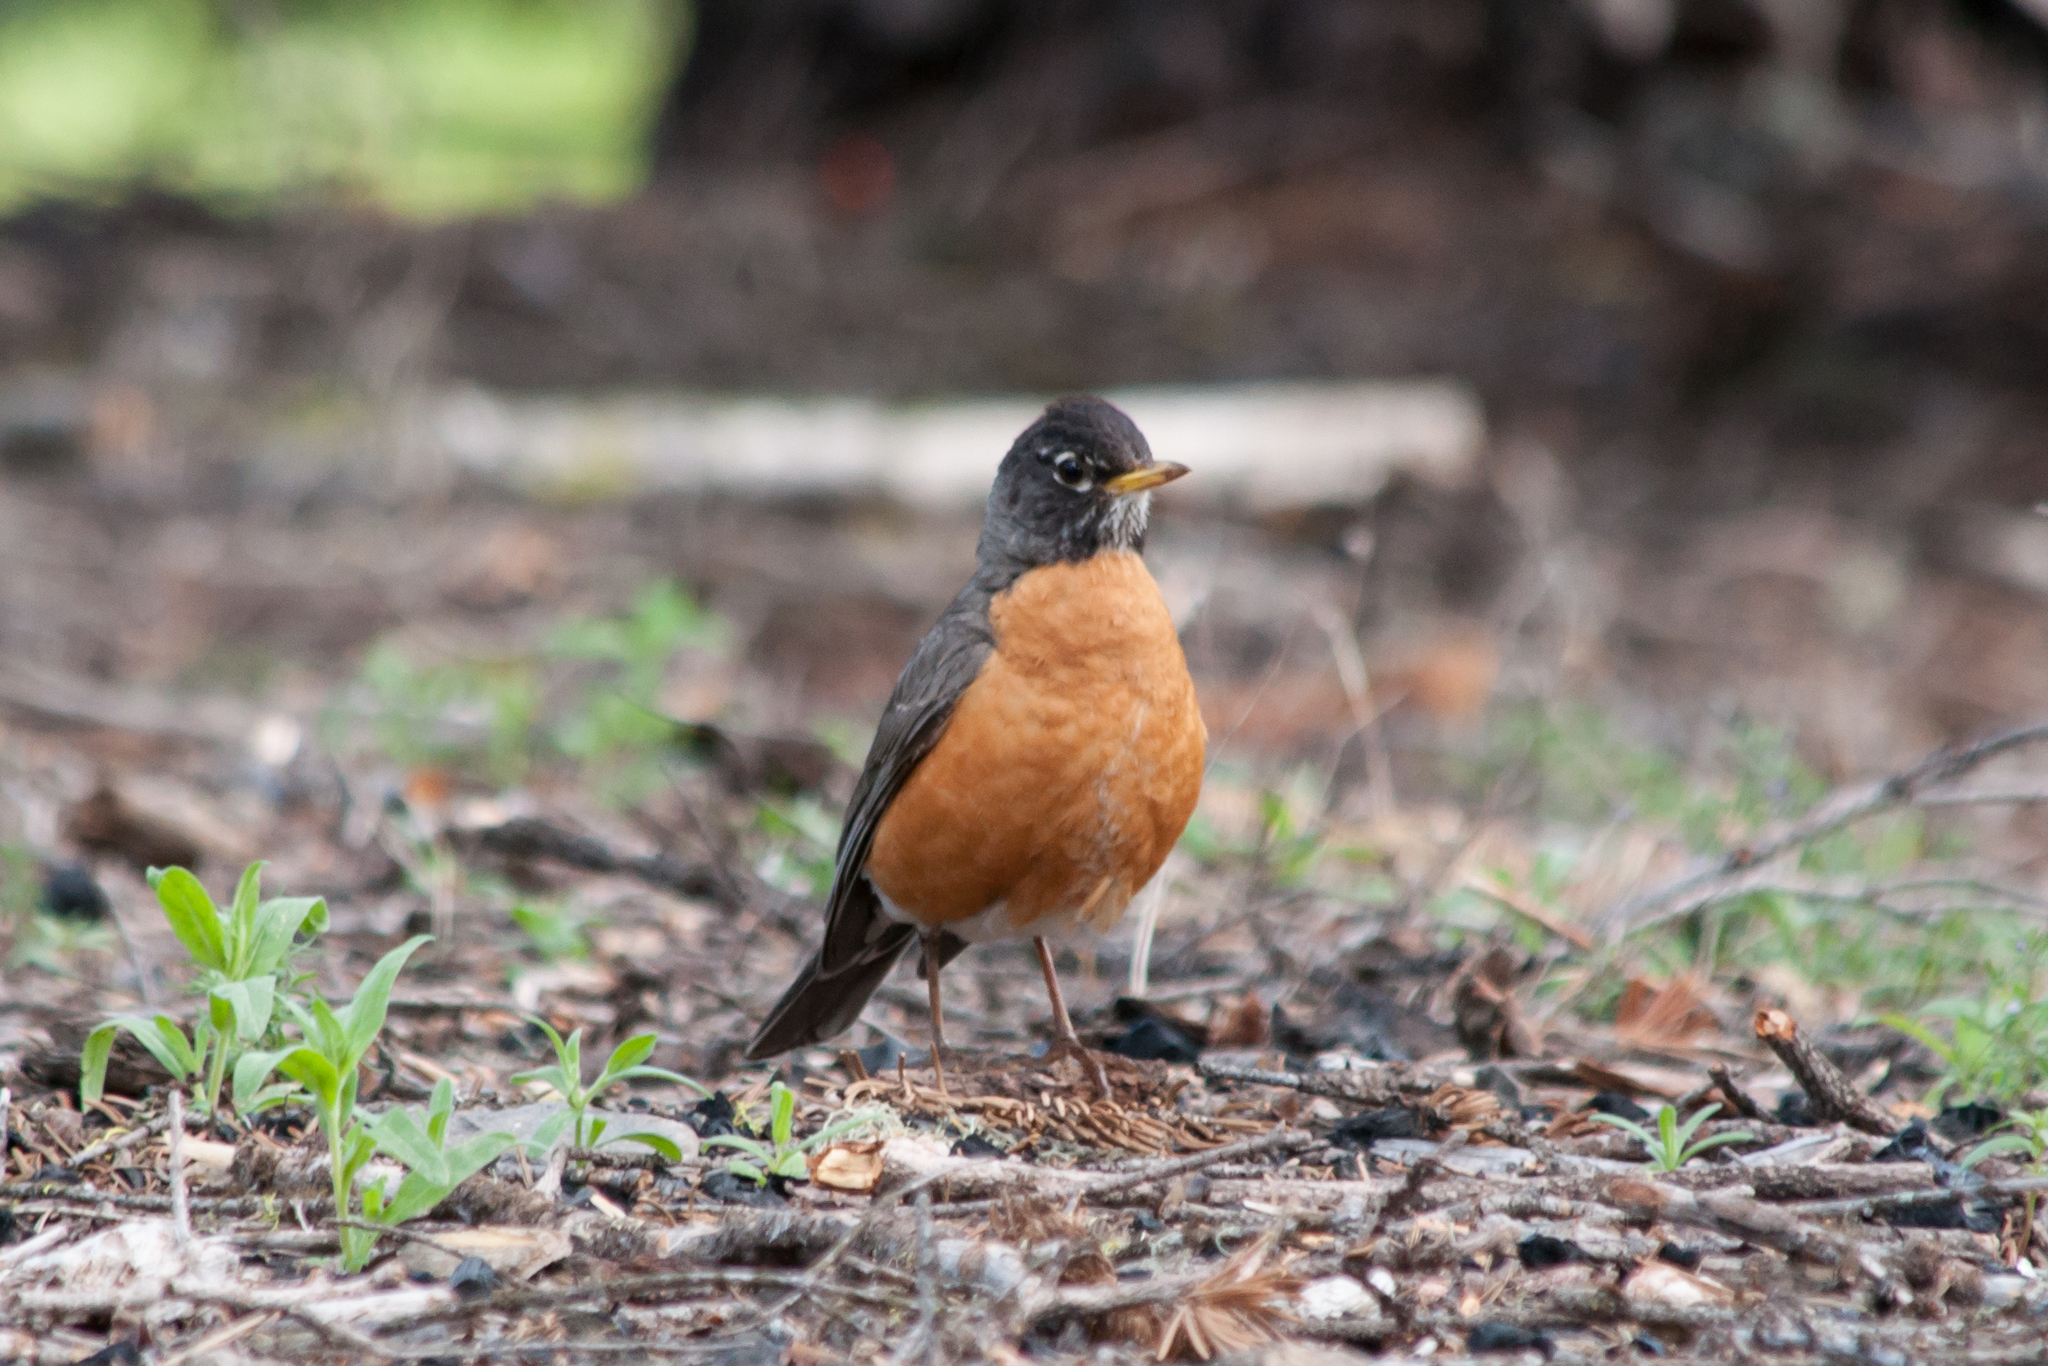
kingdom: Animalia
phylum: Chordata
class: Aves
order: Passeriformes
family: Turdidae
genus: Turdus
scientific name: Turdus migratorius
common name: American robin
